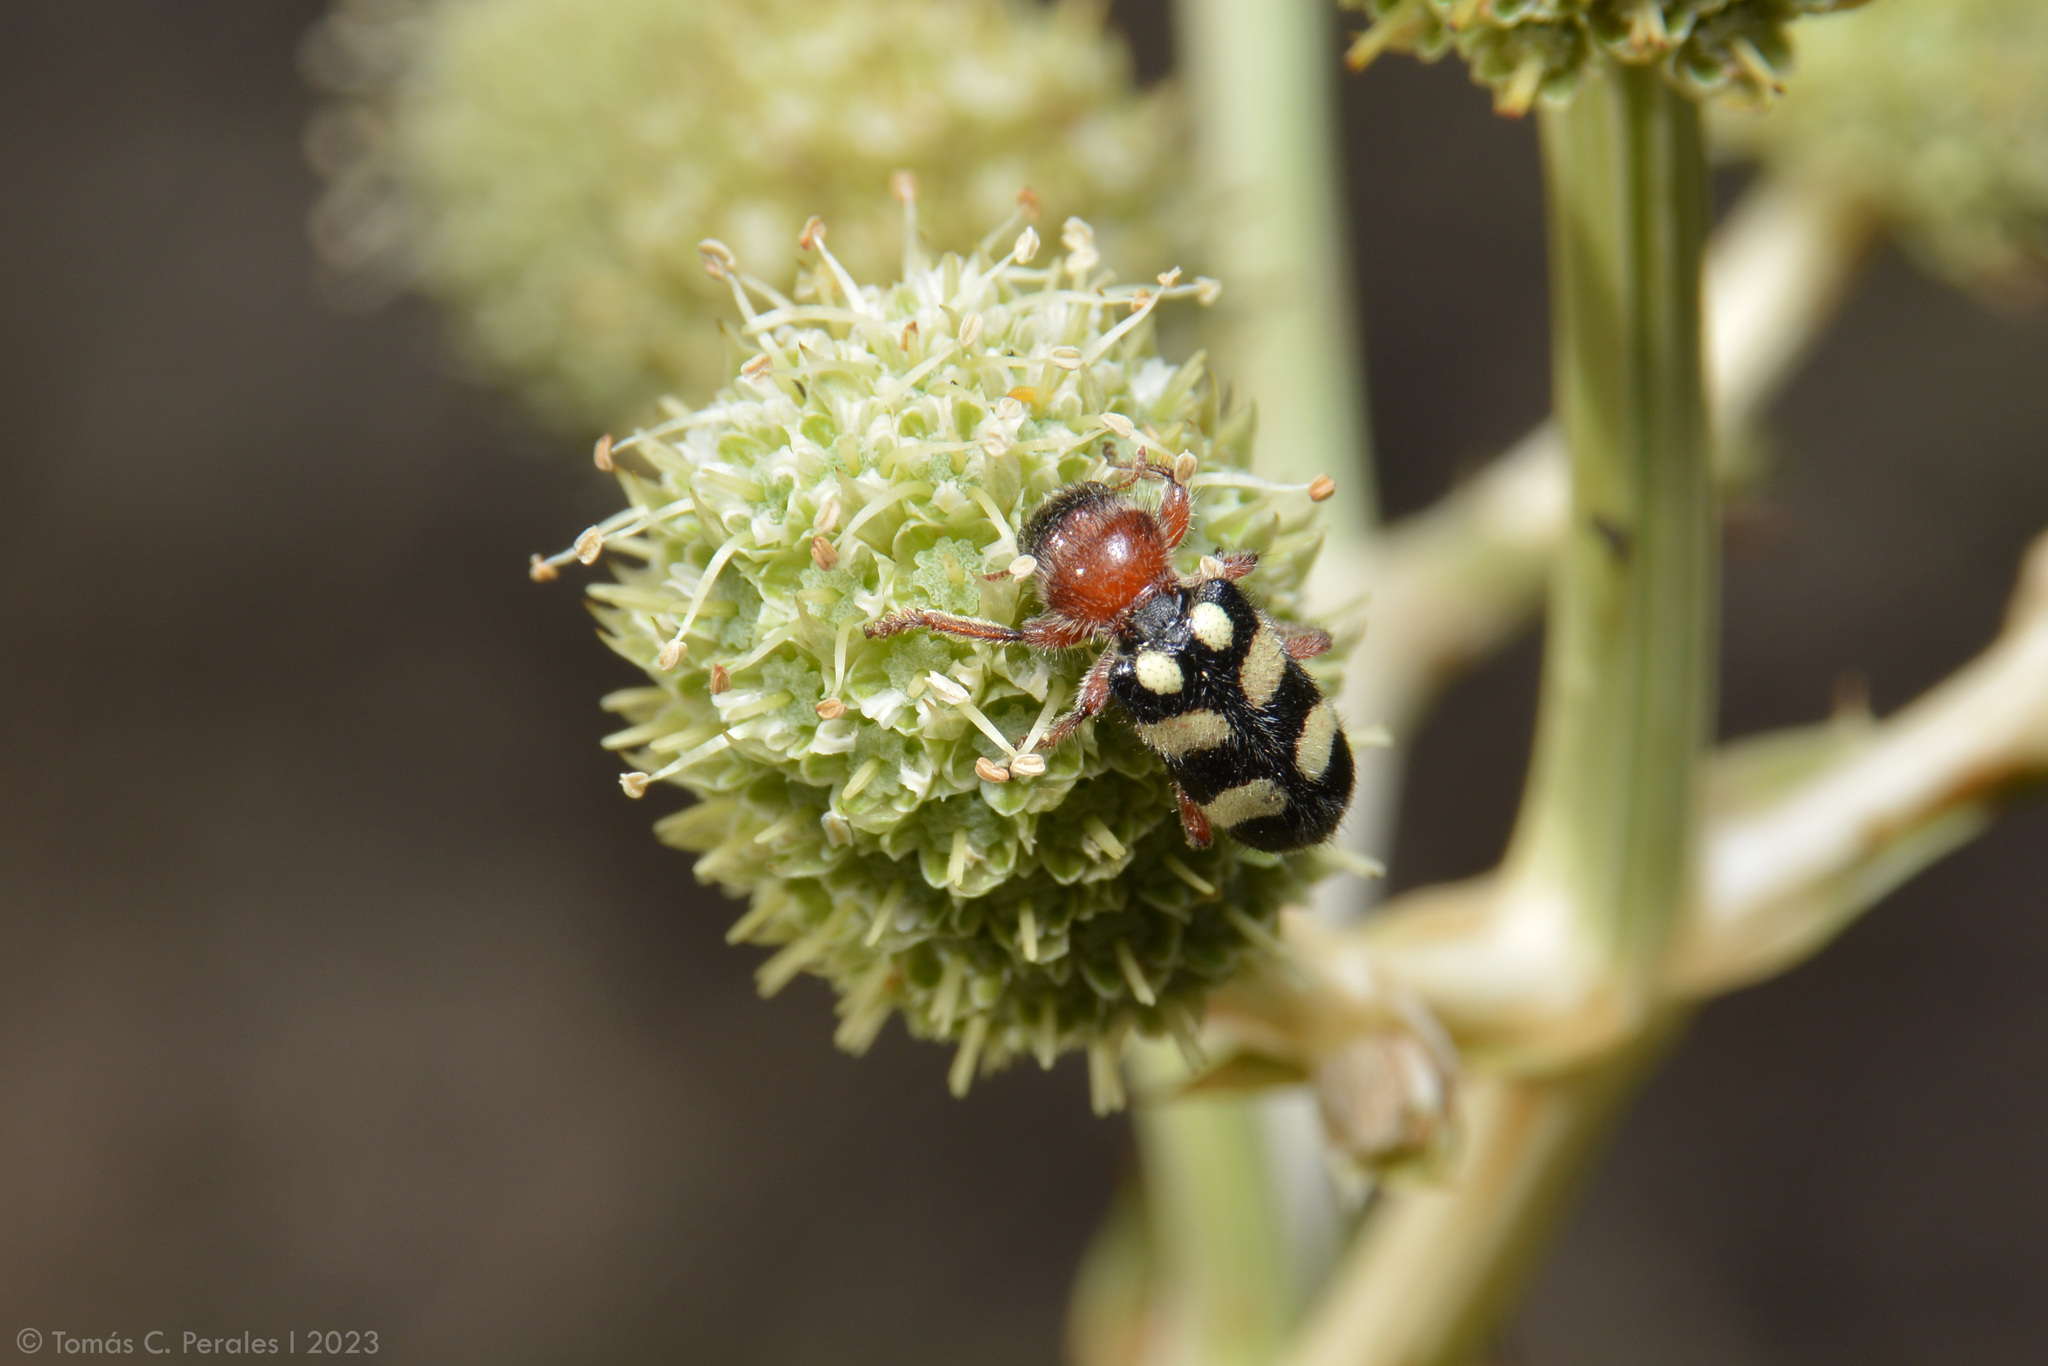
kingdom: Animalia
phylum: Arthropoda
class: Insecta
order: Coleoptera
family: Cleridae
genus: Enoclerus
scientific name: Enoclerus
